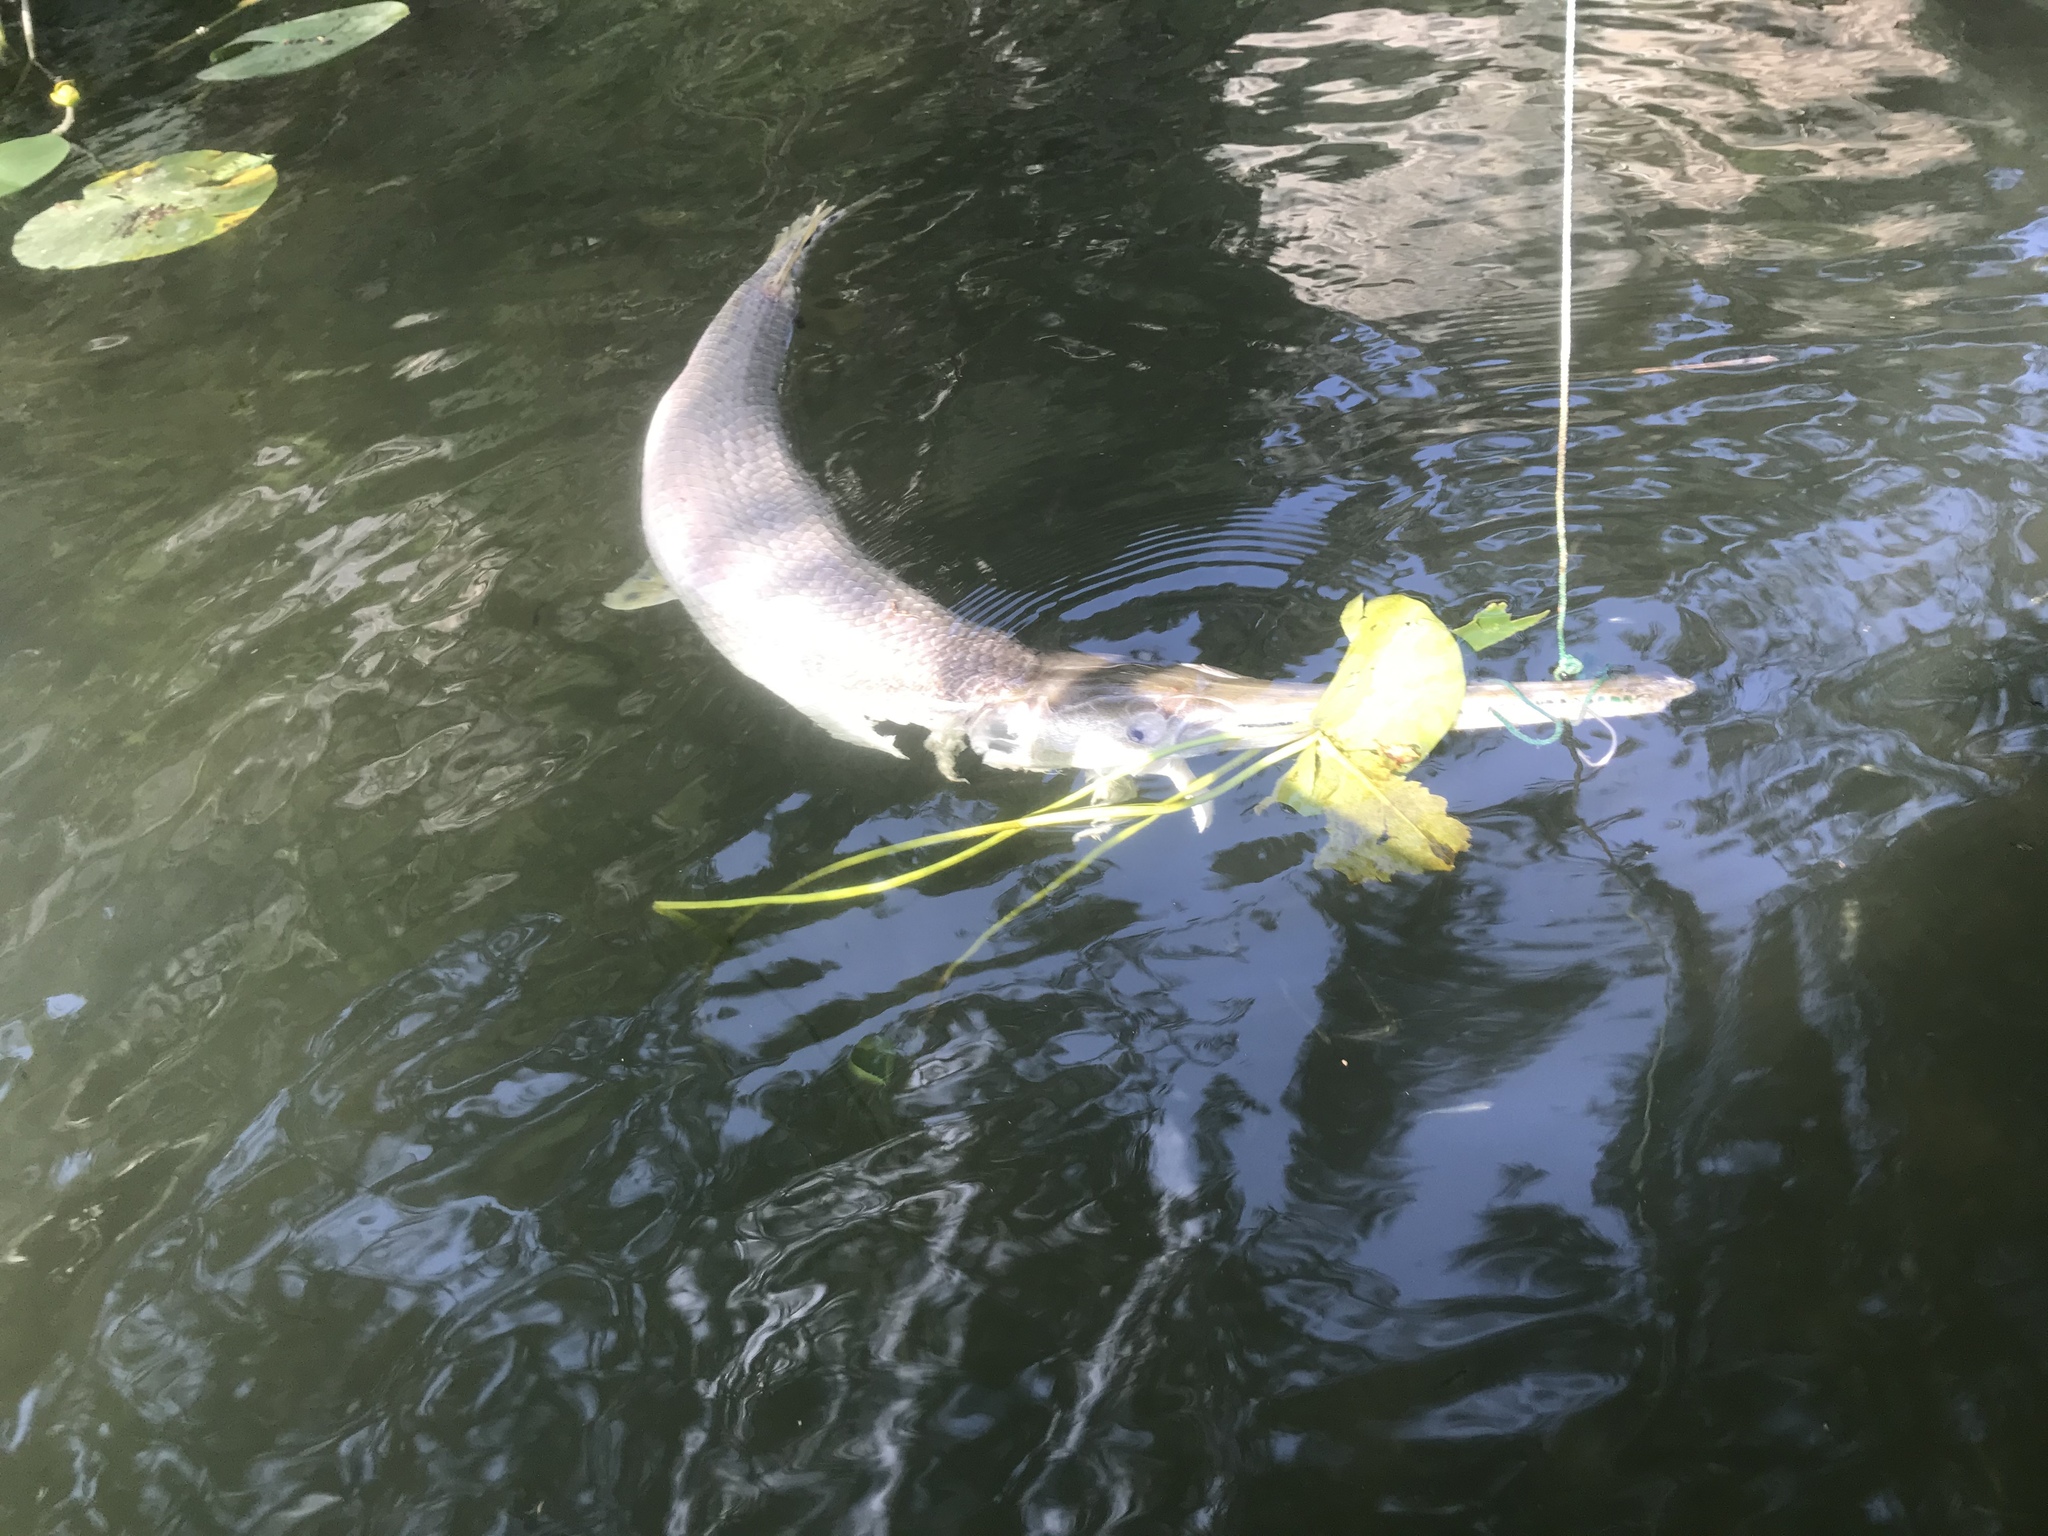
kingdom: Animalia
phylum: Chordata
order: Lepisosteiformes
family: Lepisosteidae
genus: Lepisosteus
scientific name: Lepisosteus osseus
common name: Longnose gar
